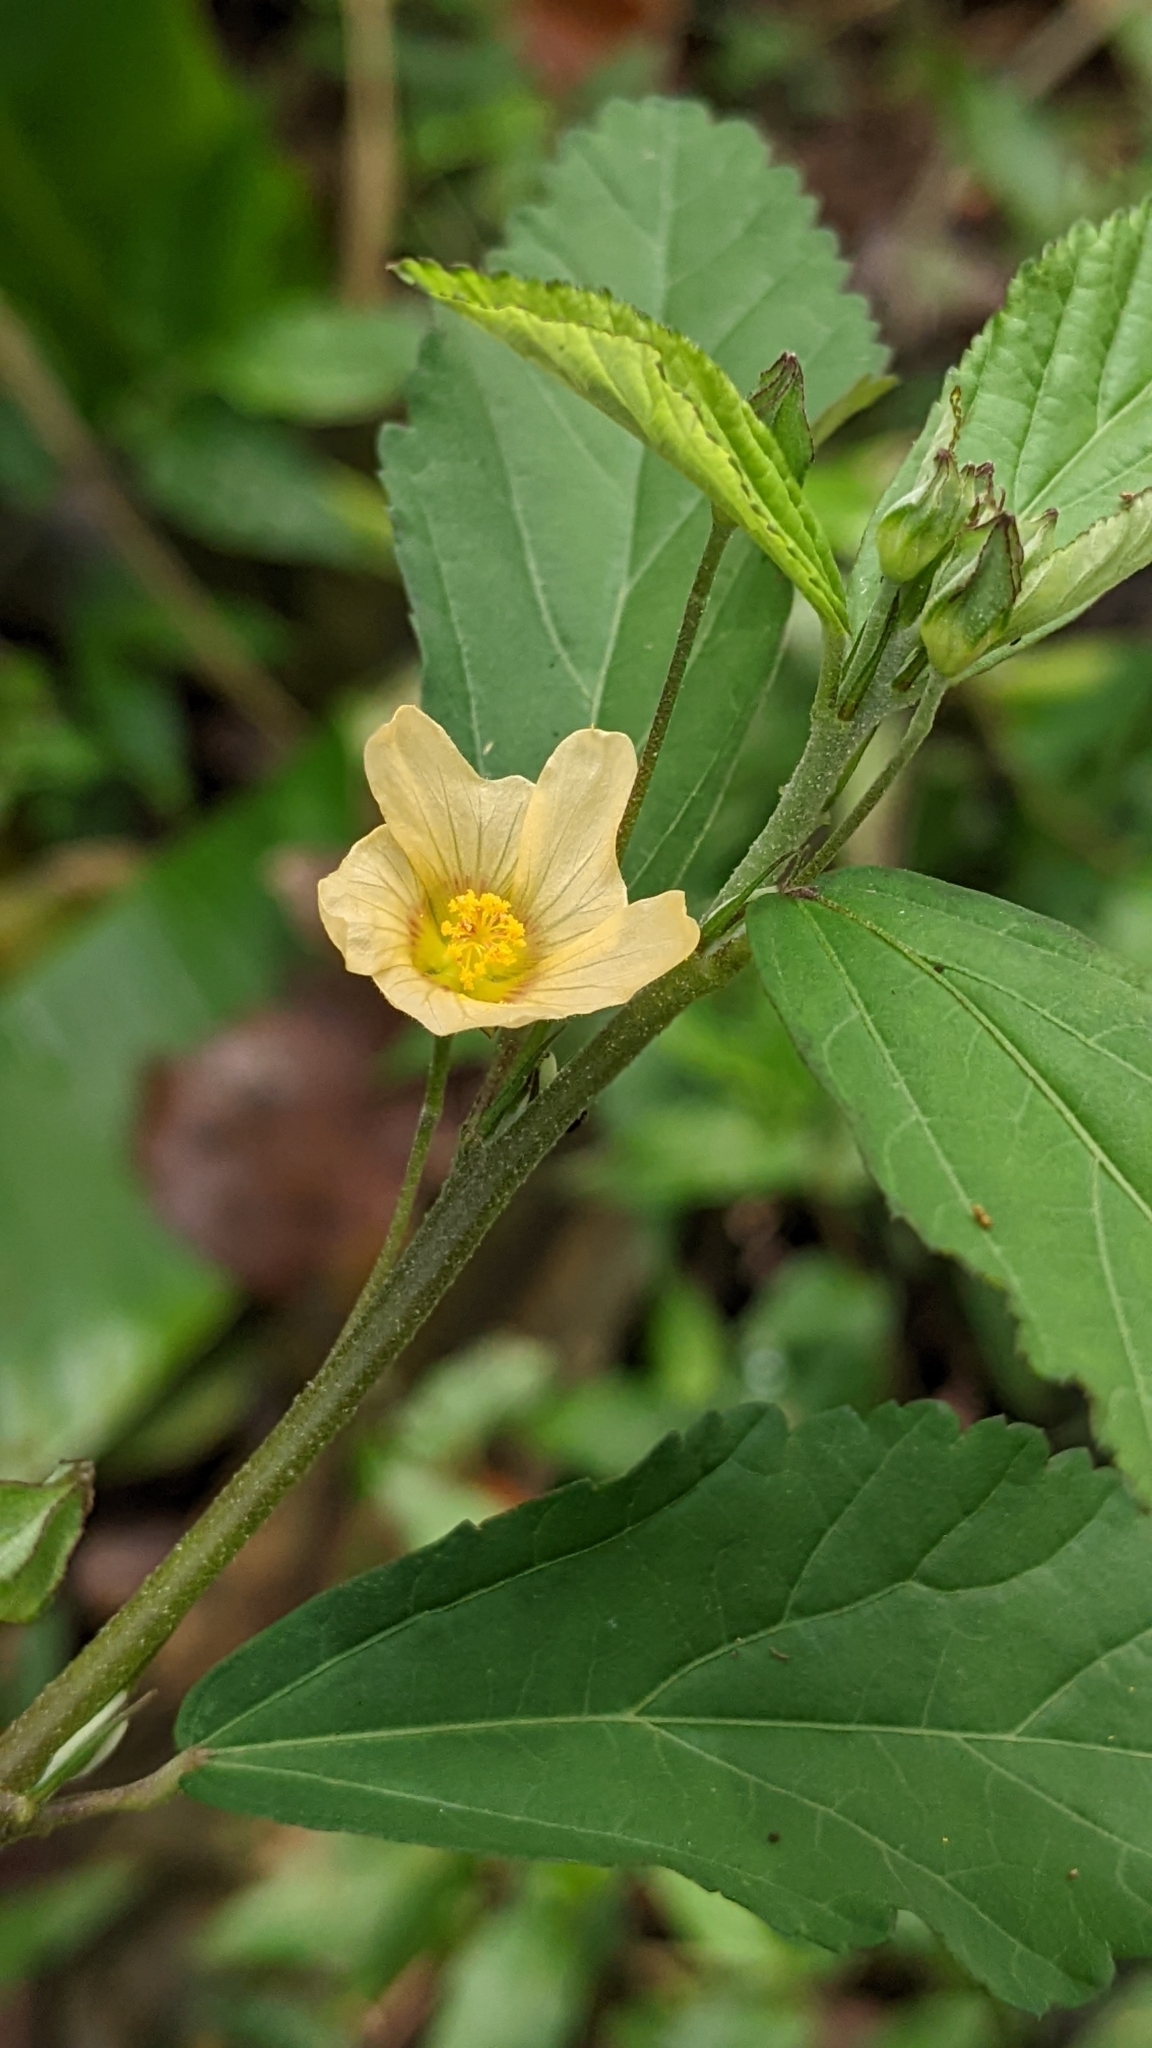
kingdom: Plantae
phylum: Tracheophyta
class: Magnoliopsida
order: Malvales
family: Malvaceae
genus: Sida
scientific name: Sida rhombifolia
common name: Queensland-hemp
